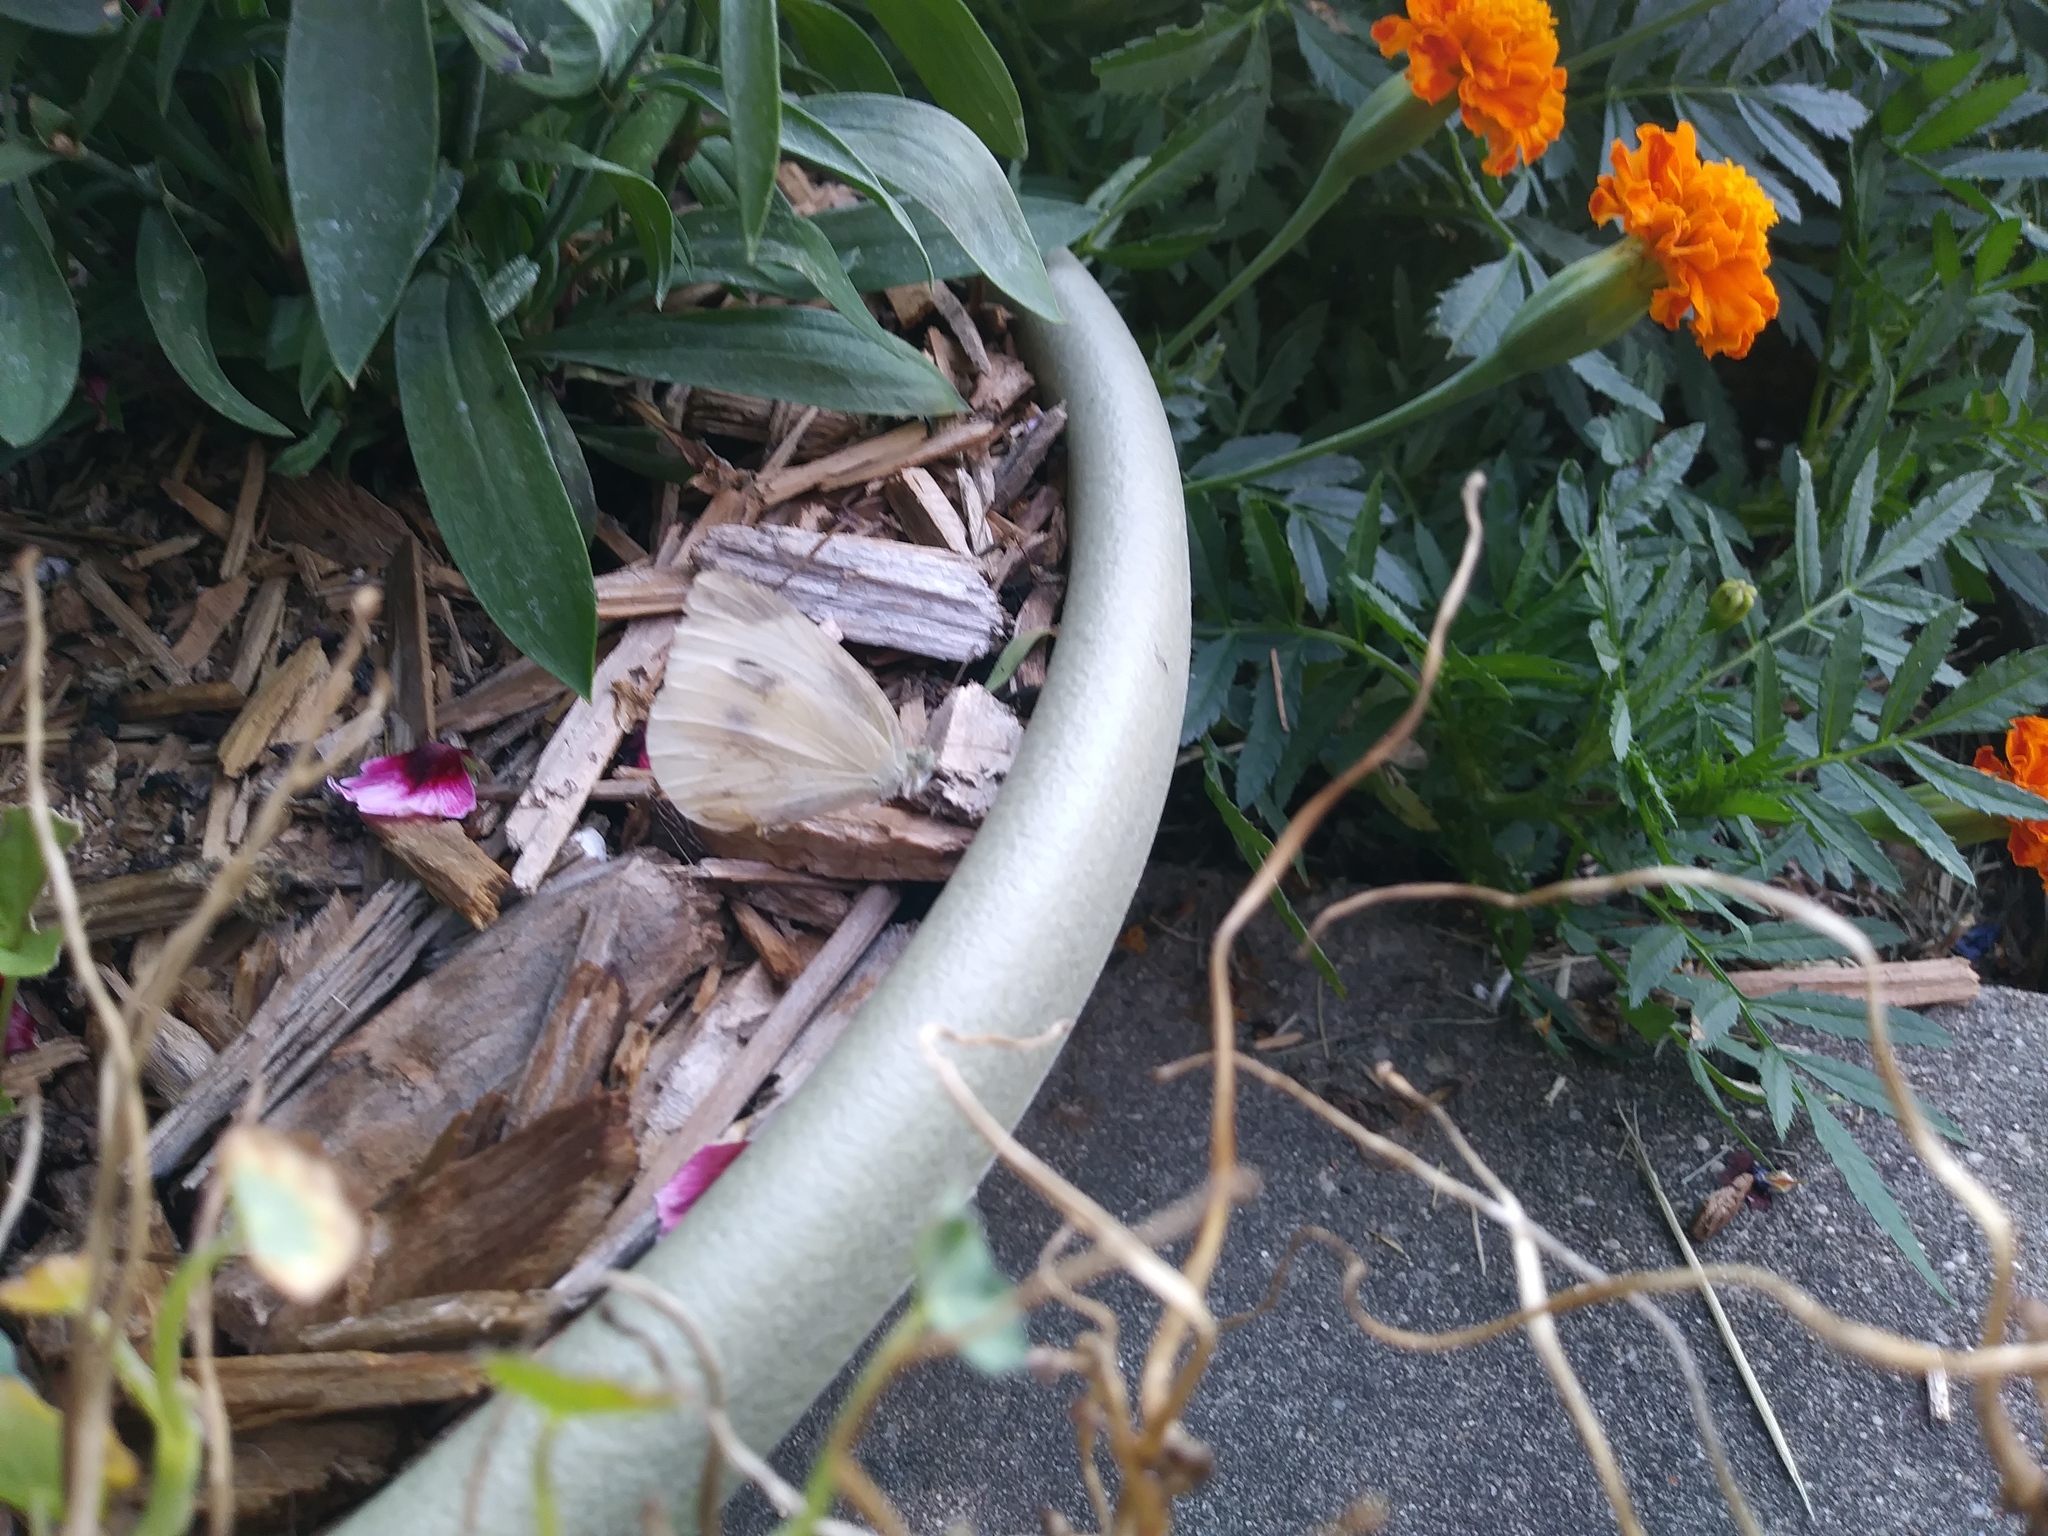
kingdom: Animalia
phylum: Arthropoda
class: Insecta
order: Lepidoptera
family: Pieridae
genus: Pieris
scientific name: Pieris rapae
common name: Small white
